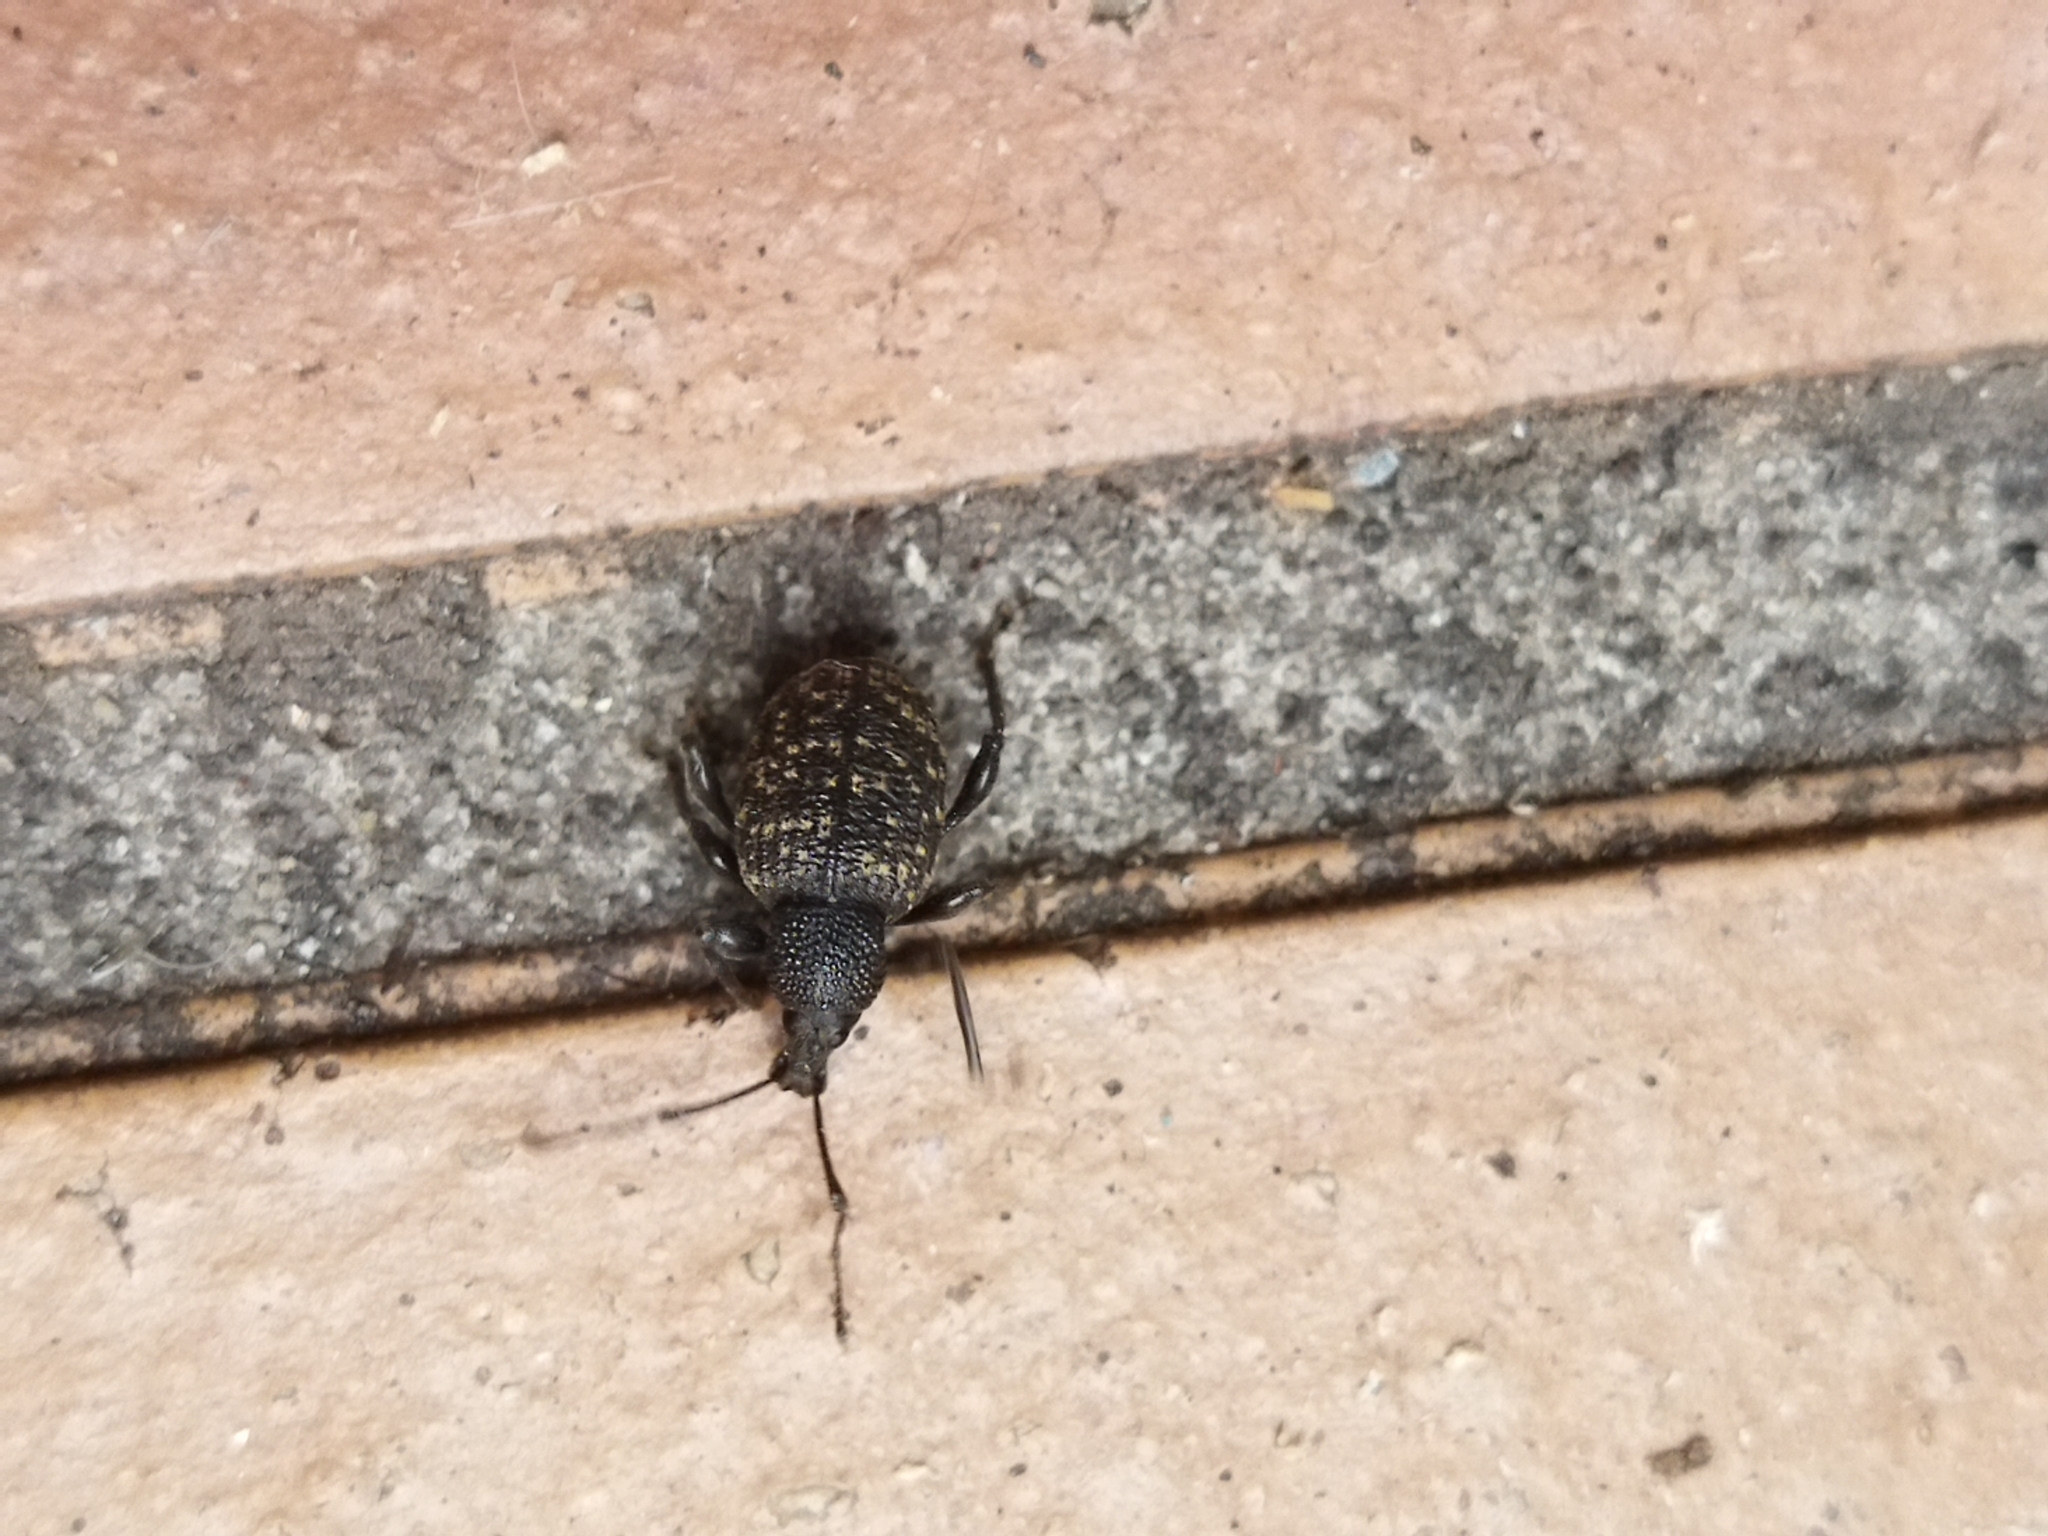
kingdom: Animalia
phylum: Arthropoda
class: Insecta
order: Coleoptera
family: Curculionidae
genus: Otiorhynchus
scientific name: Otiorhynchus sulcatus
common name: Black vine weevil
